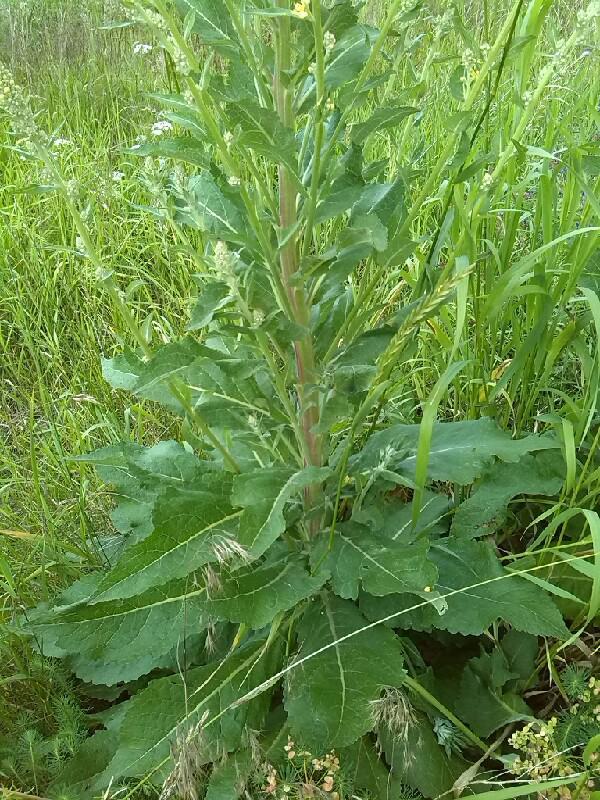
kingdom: Plantae
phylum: Tracheophyta
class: Magnoliopsida
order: Lamiales
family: Scrophulariaceae
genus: Verbascum
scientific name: Verbascum lychnitis
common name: White mullein
